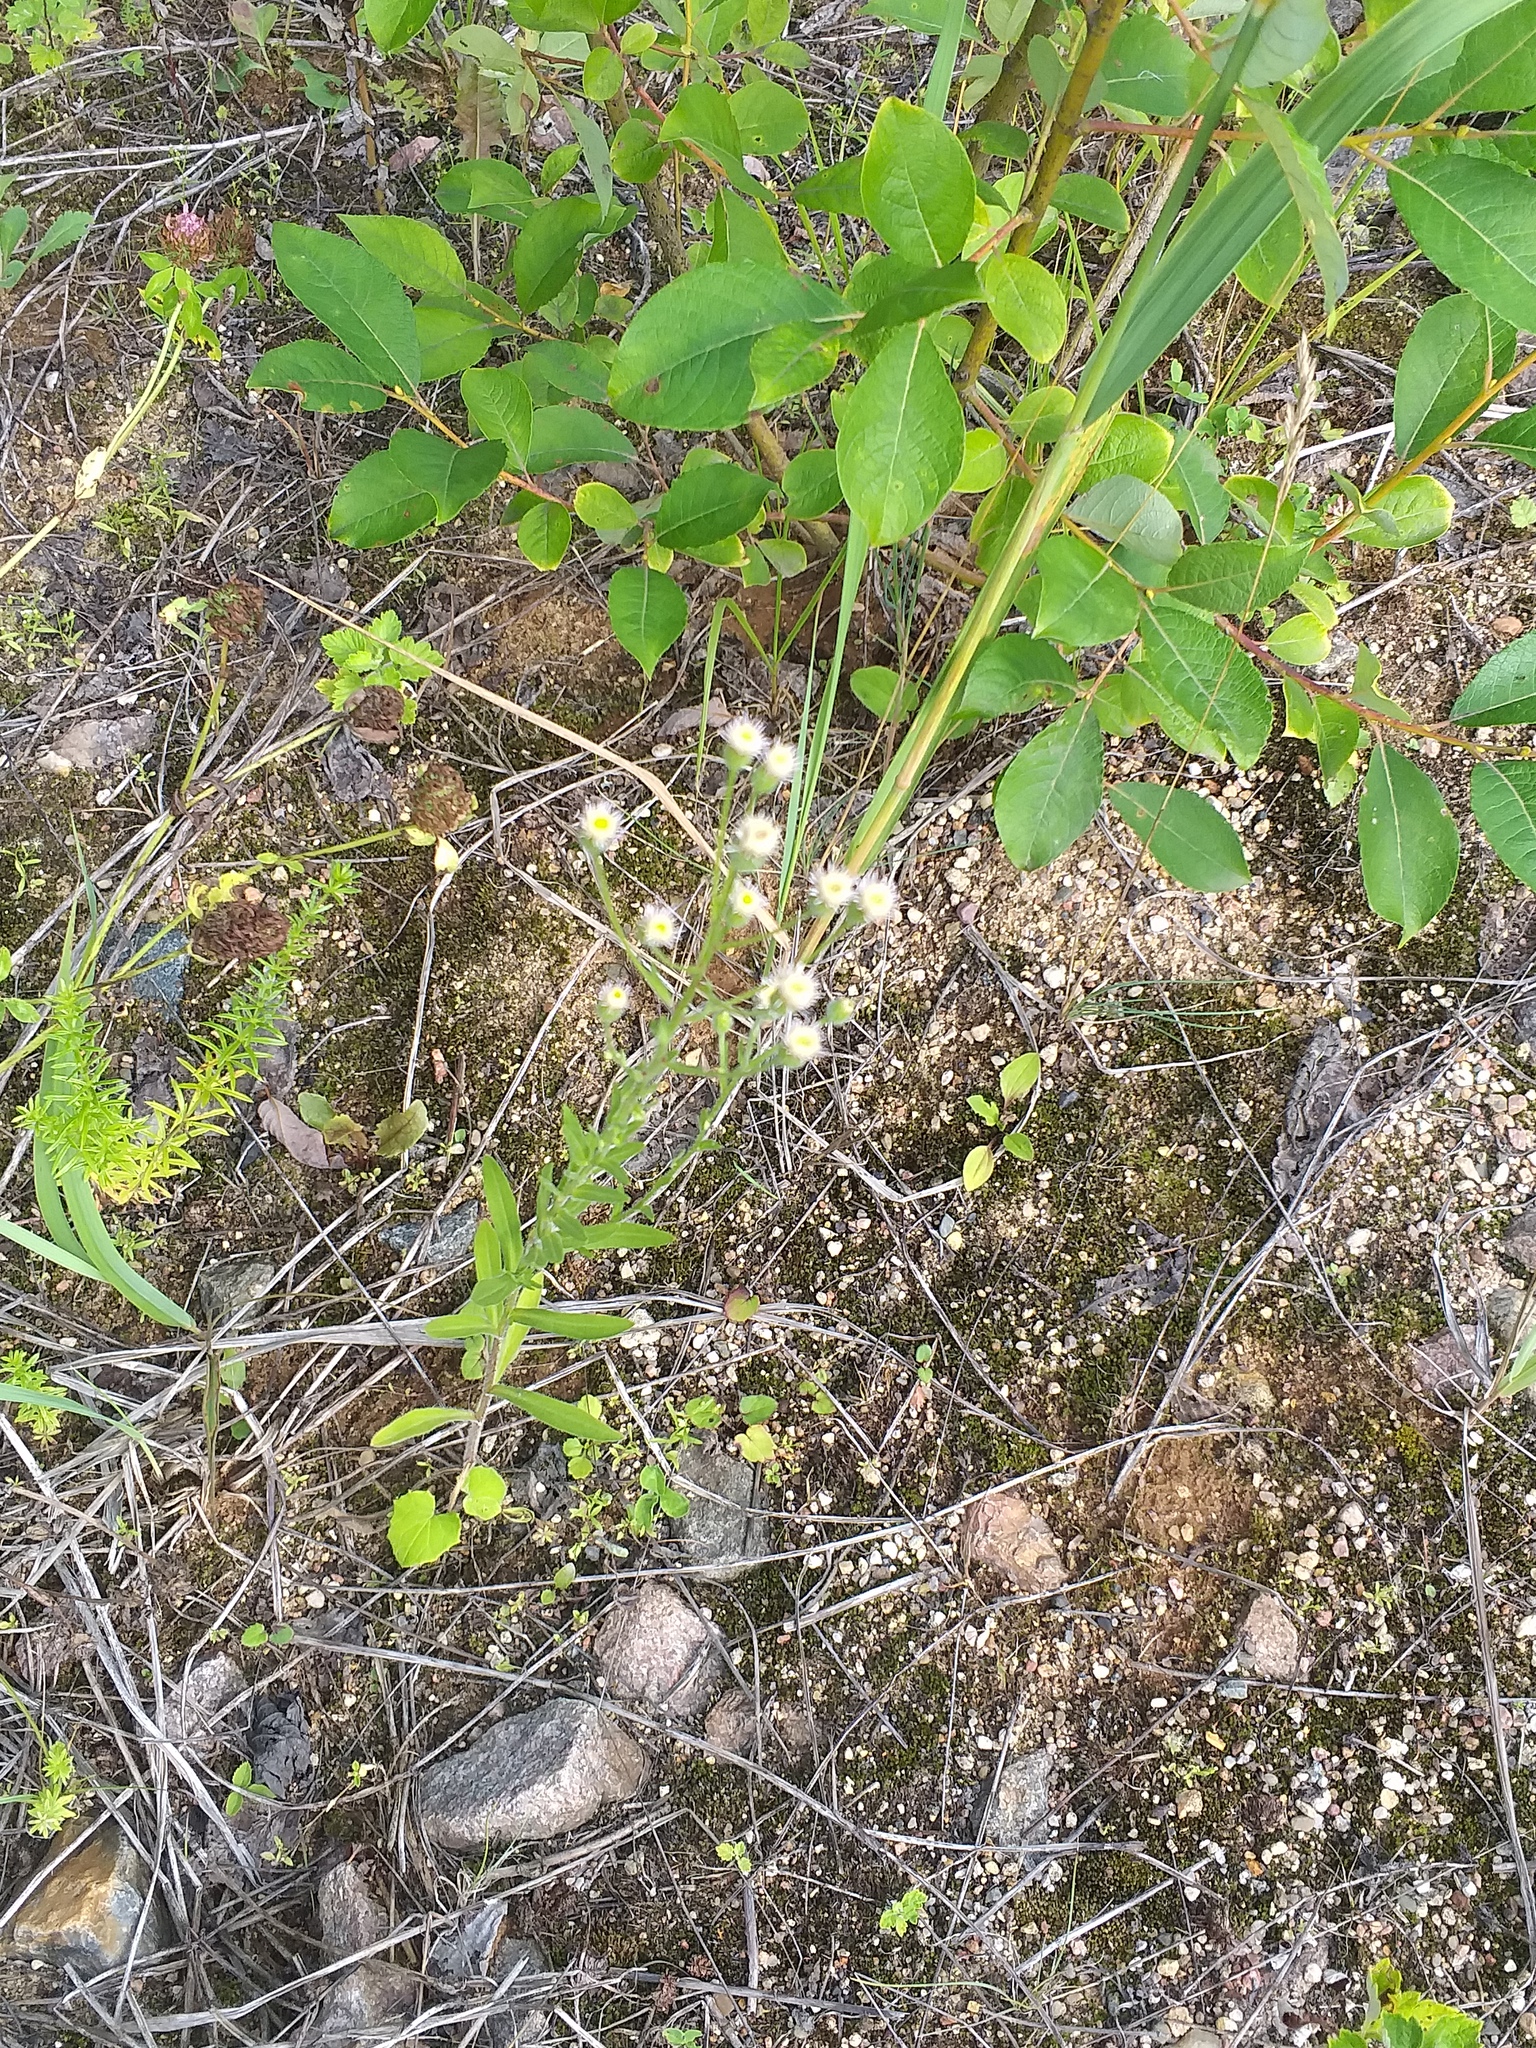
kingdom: Plantae
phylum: Tracheophyta
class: Magnoliopsida
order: Asterales
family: Asteraceae
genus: Erigeron
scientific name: Erigeron acris
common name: Blue fleabane
